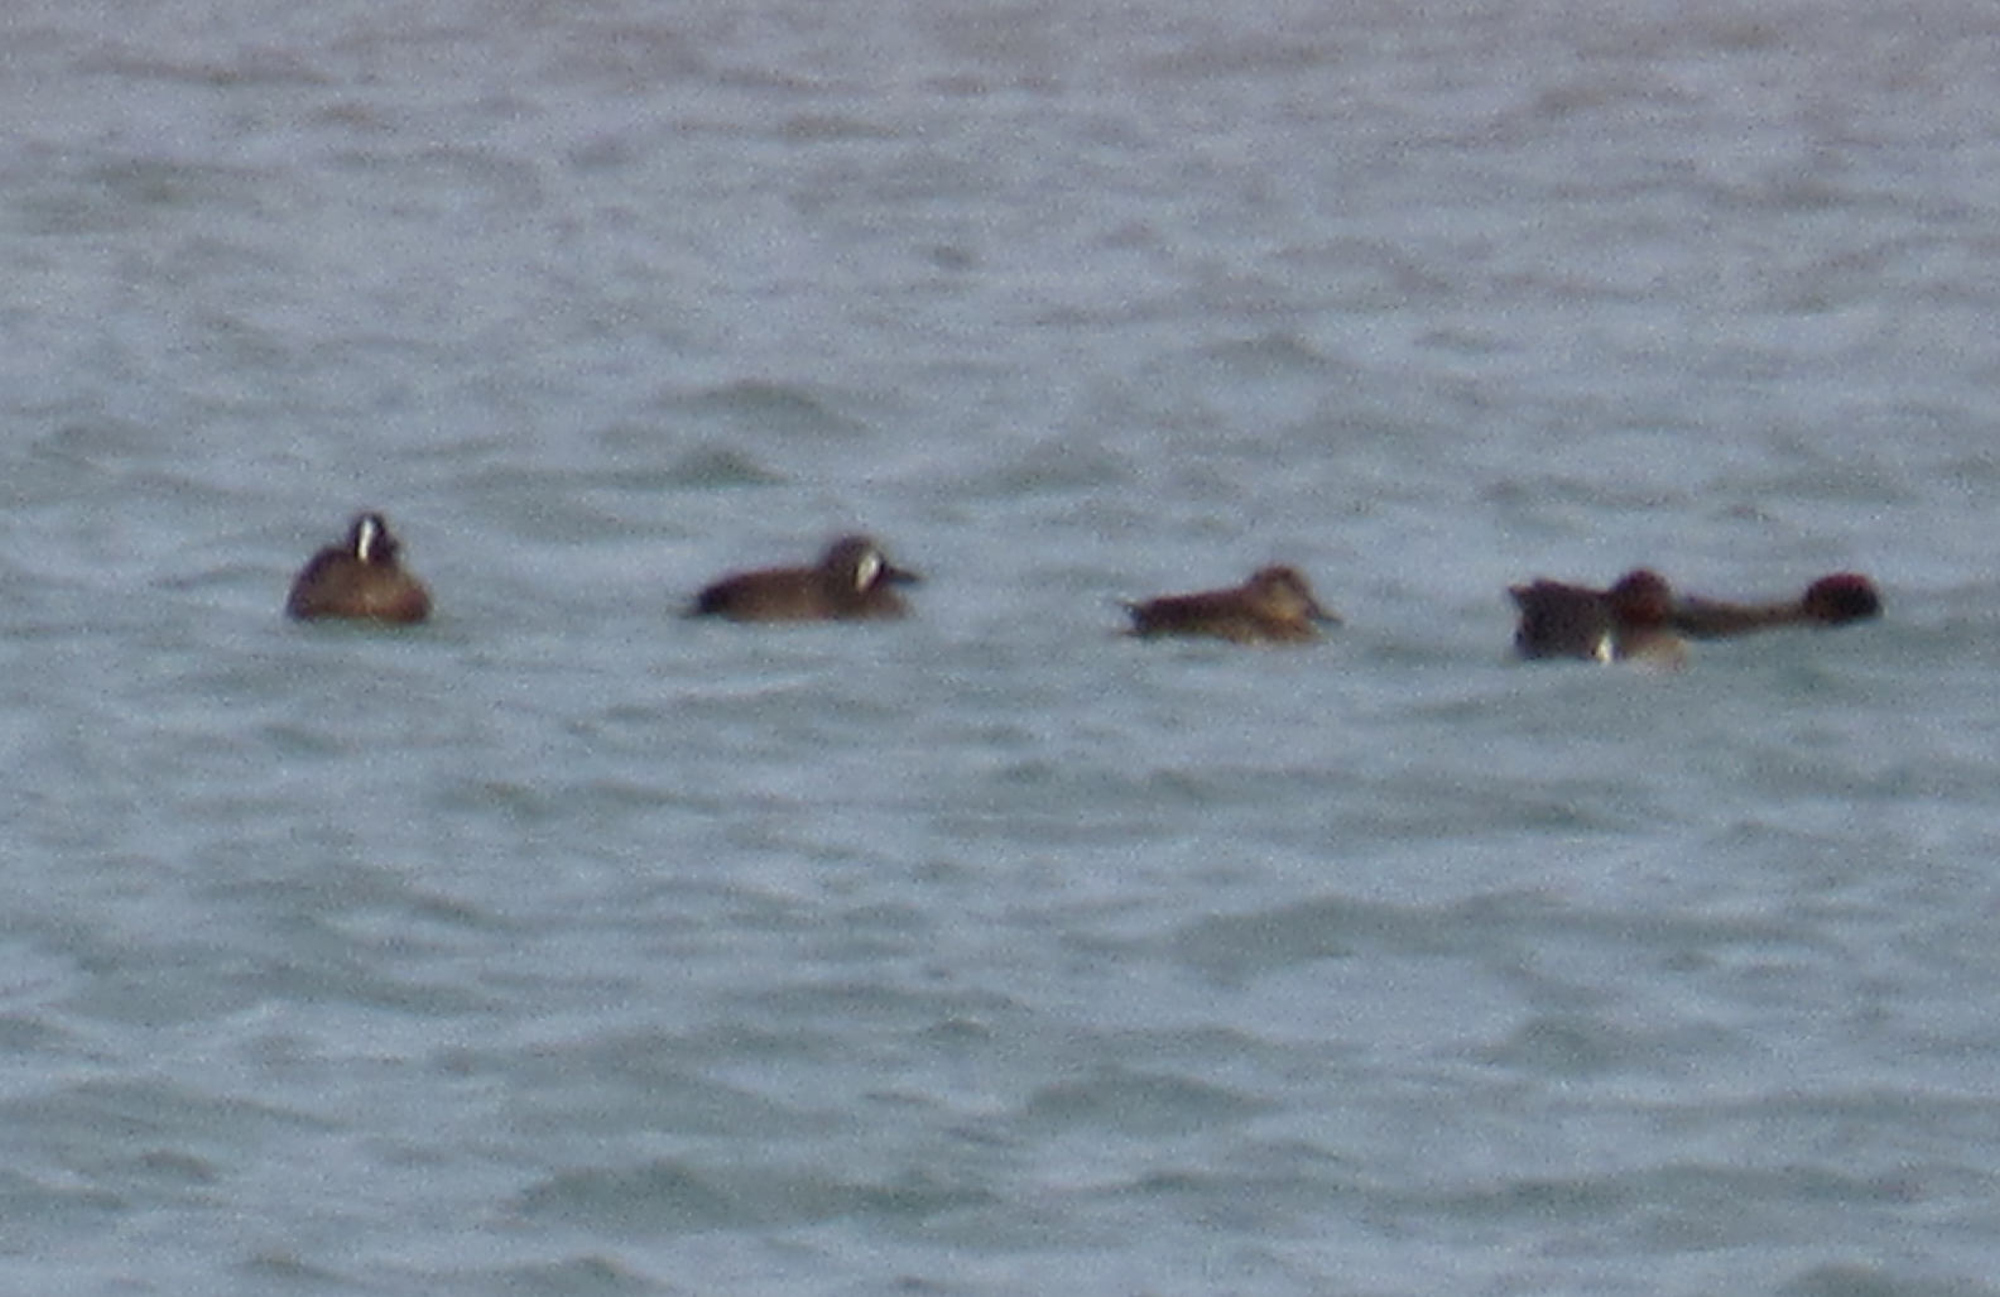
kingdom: Animalia
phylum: Chordata
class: Aves
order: Anseriformes
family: Anatidae
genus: Spatula
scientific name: Spatula discors
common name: Blue-winged teal
